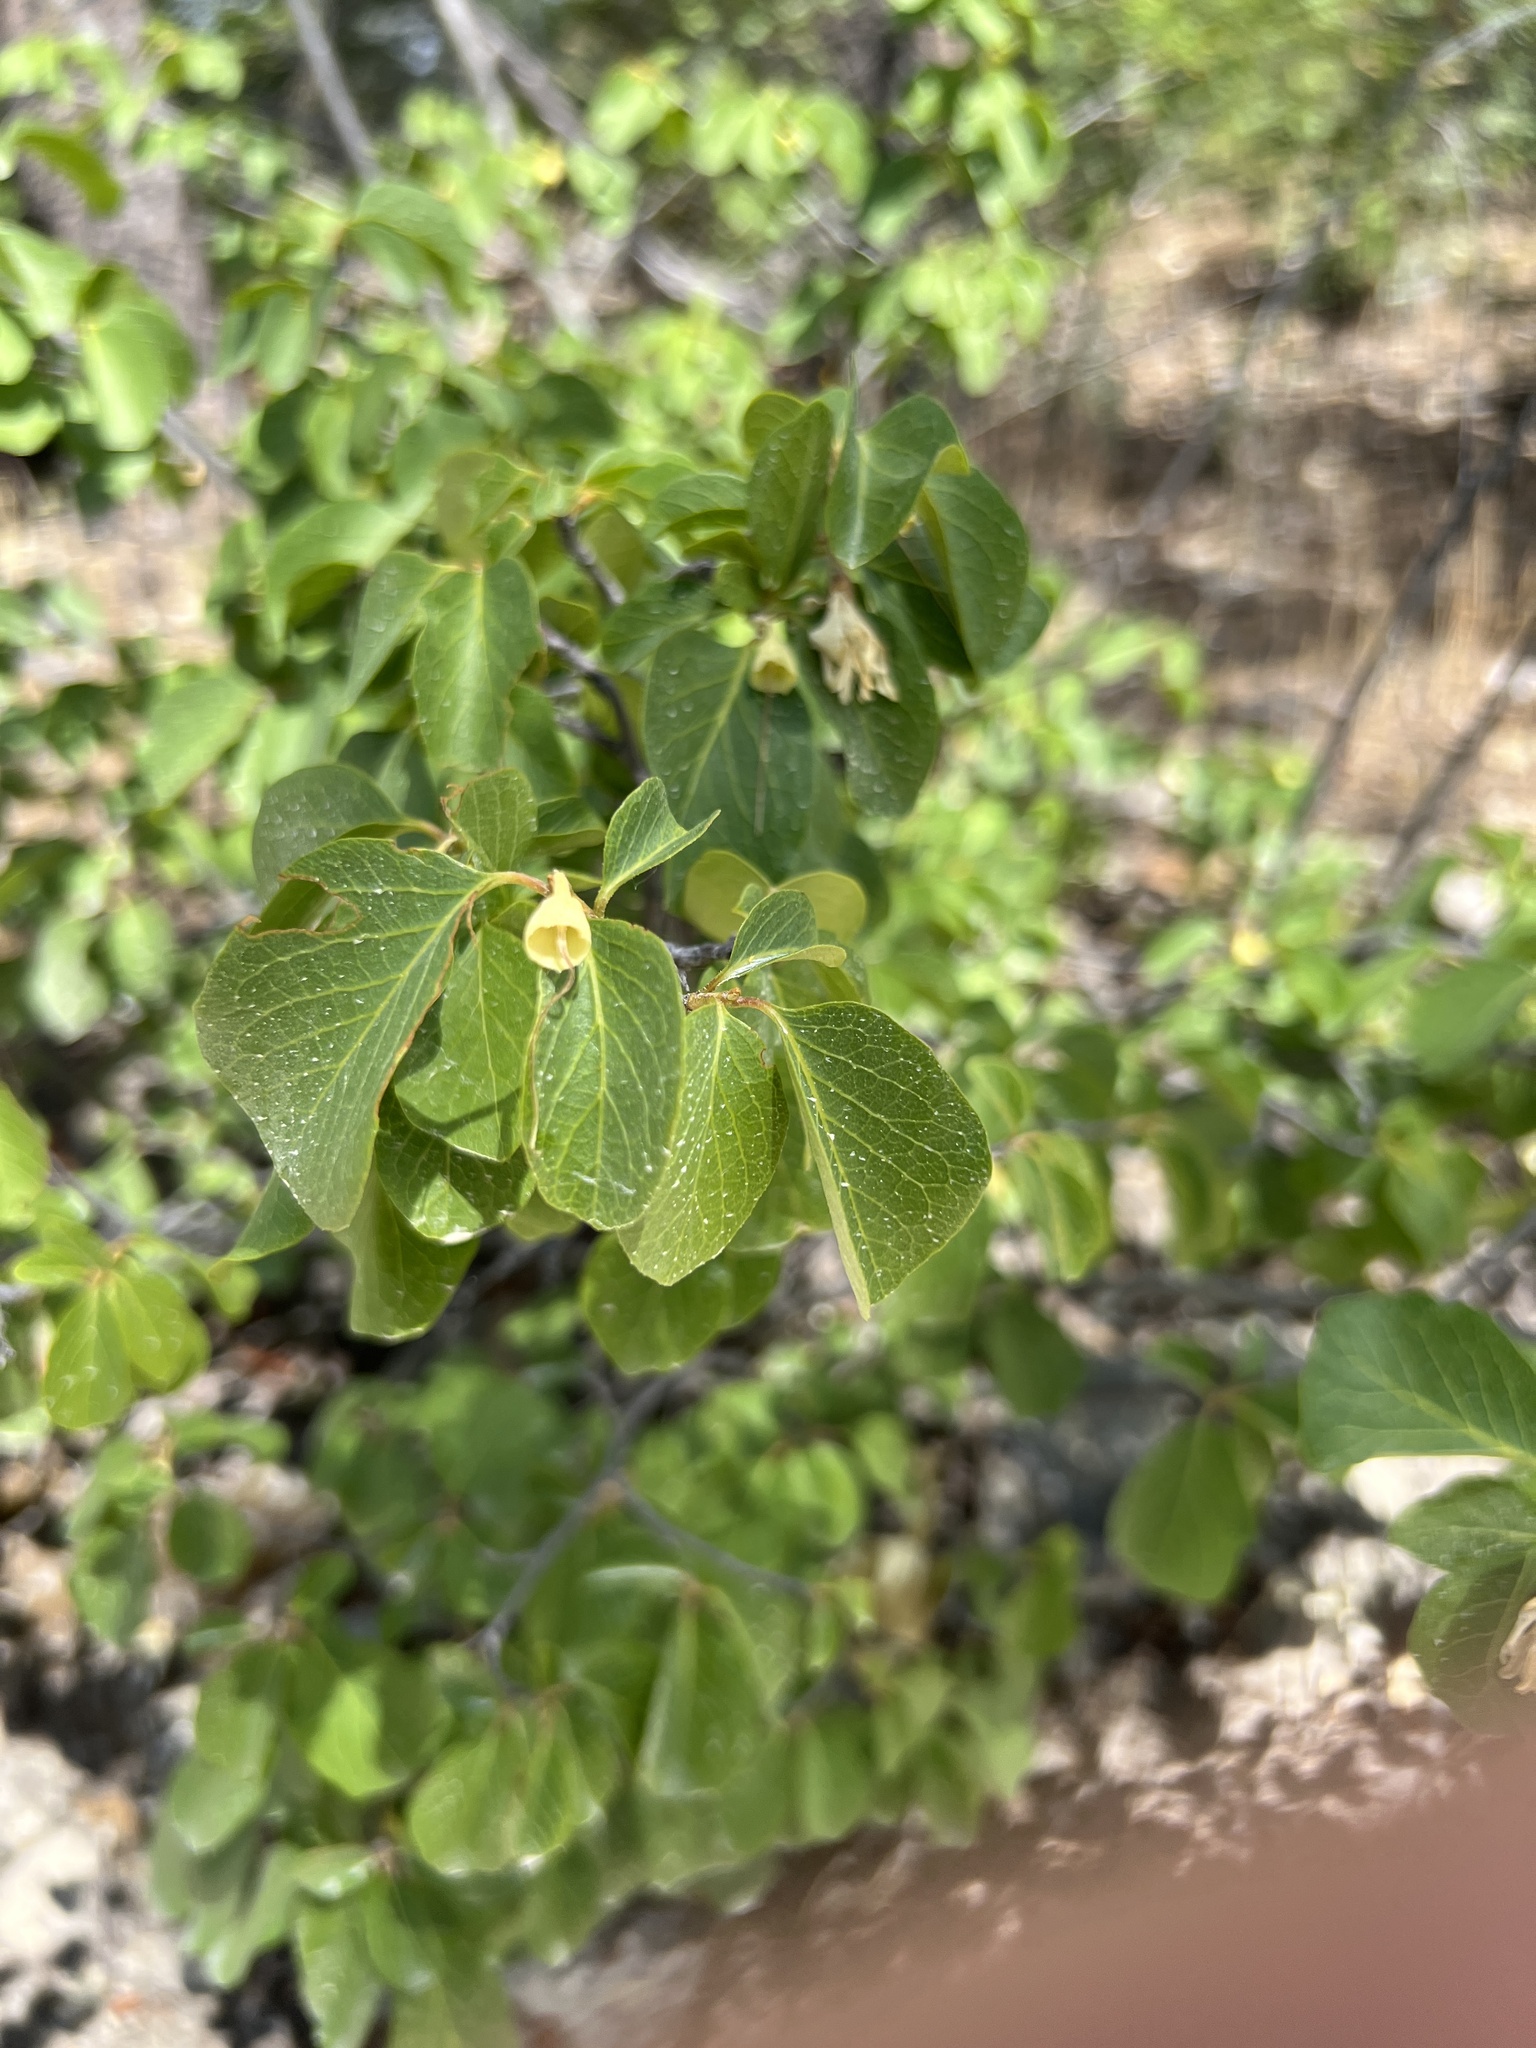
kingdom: Plantae
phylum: Tracheophyta
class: Magnoliopsida
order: Ericales
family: Styracaceae
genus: Styrax
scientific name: Styrax redivivus
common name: California styrax
